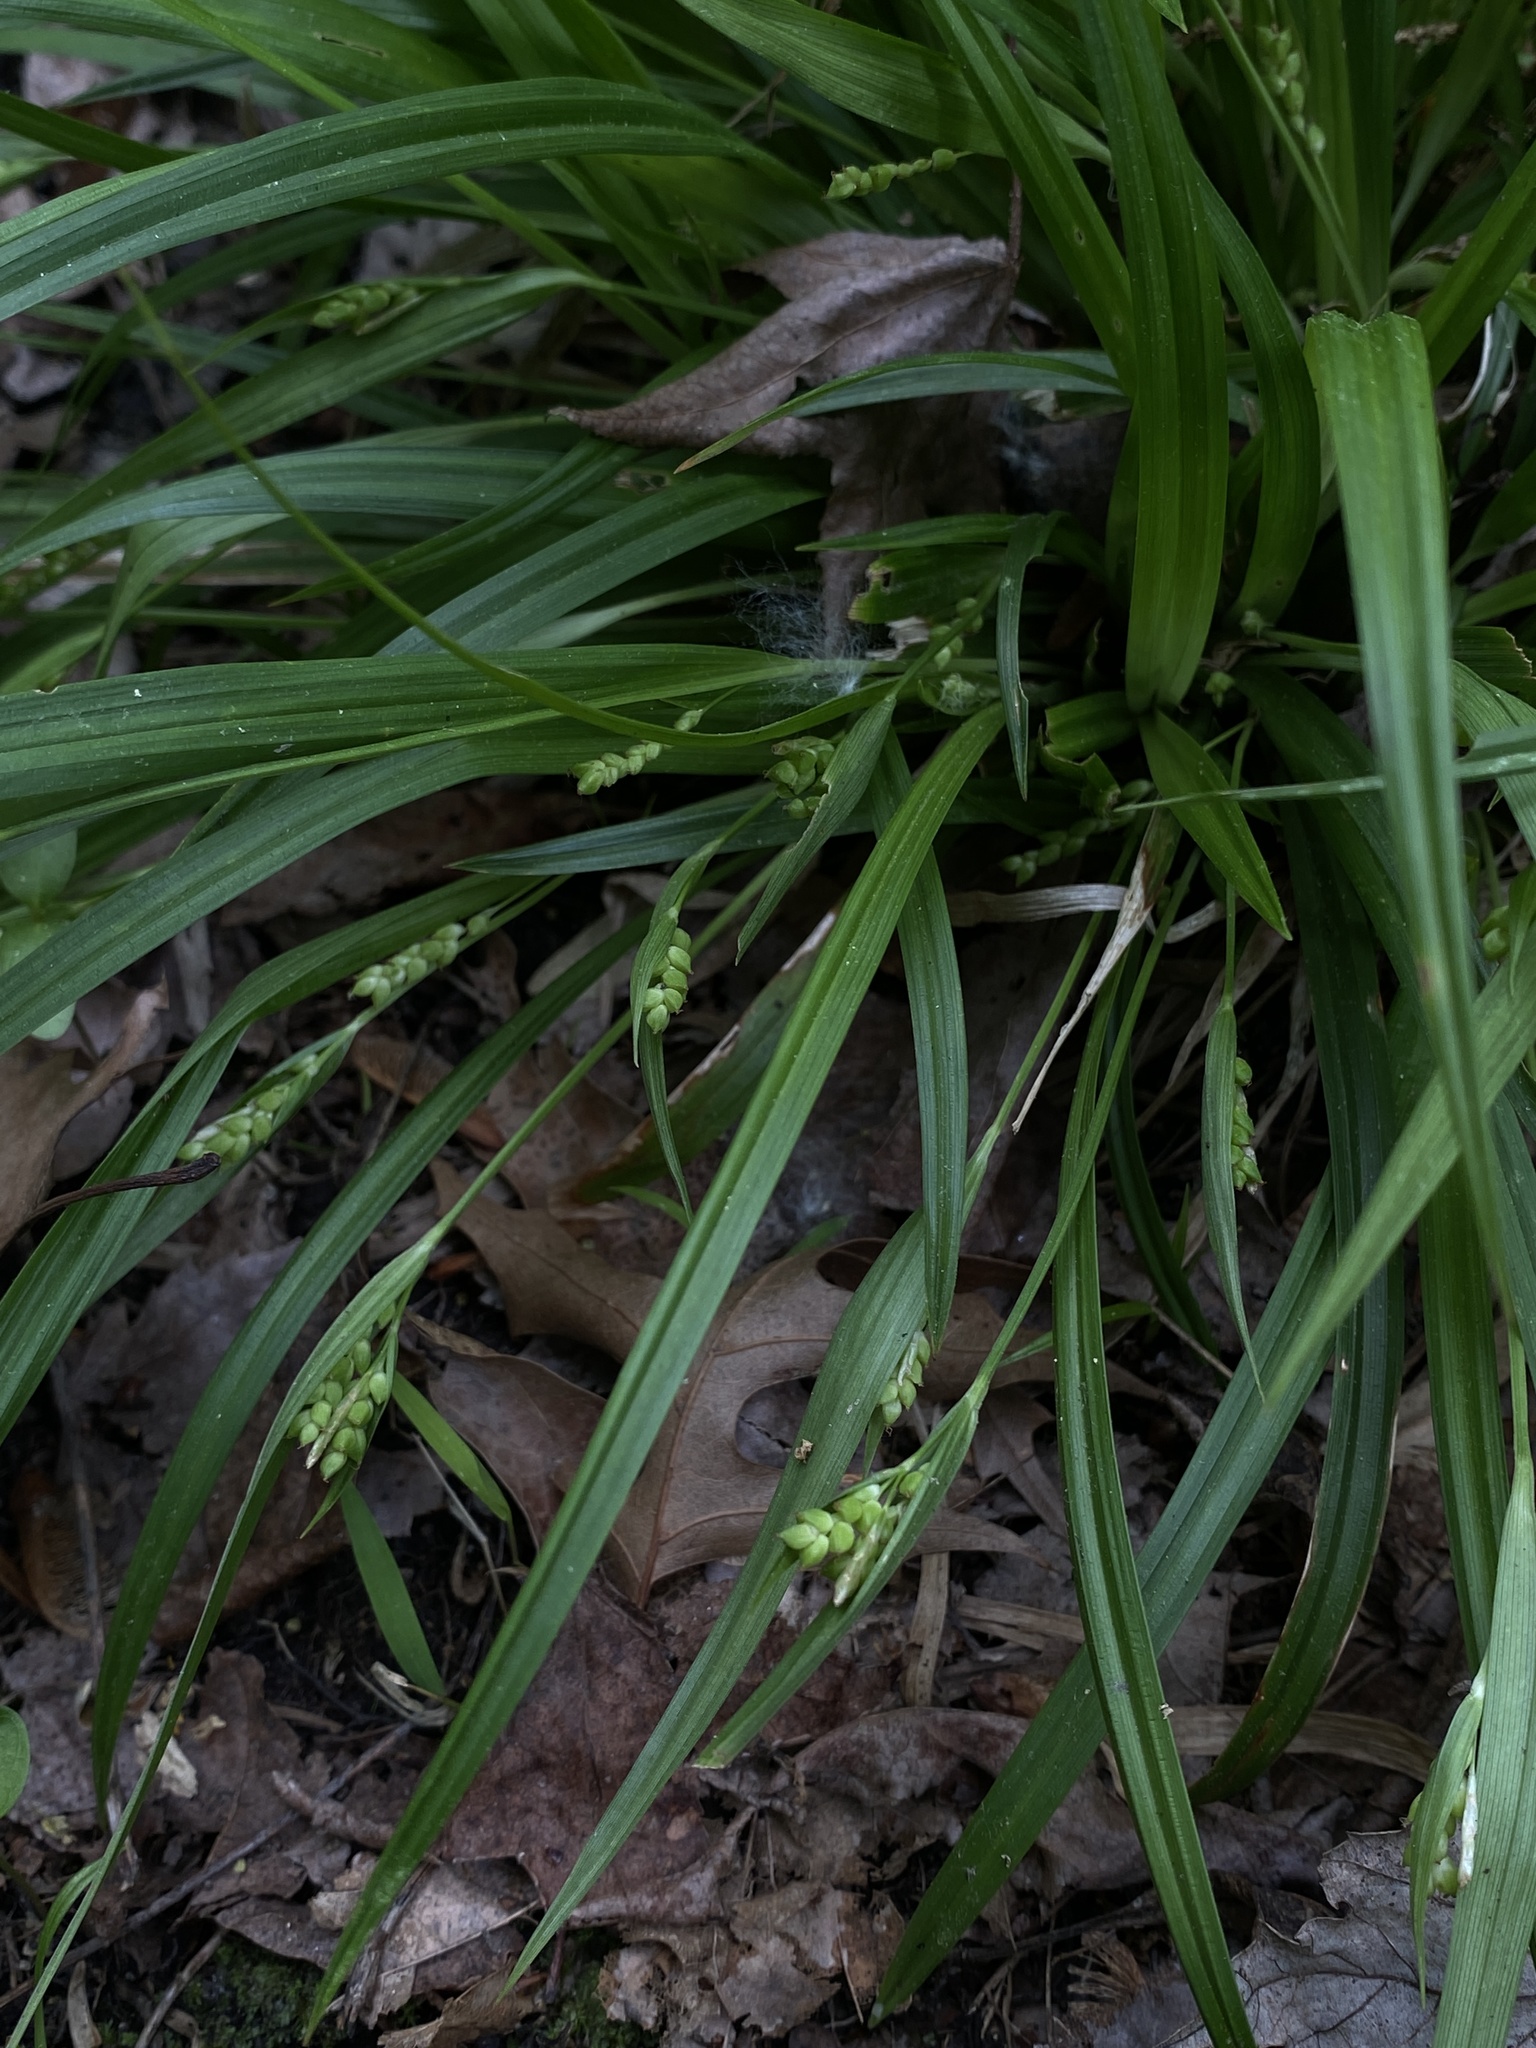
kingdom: Plantae
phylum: Tracheophyta
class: Liliopsida
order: Poales
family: Cyperaceae
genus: Carex
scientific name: Carex abscondita
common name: Thicket sedge
